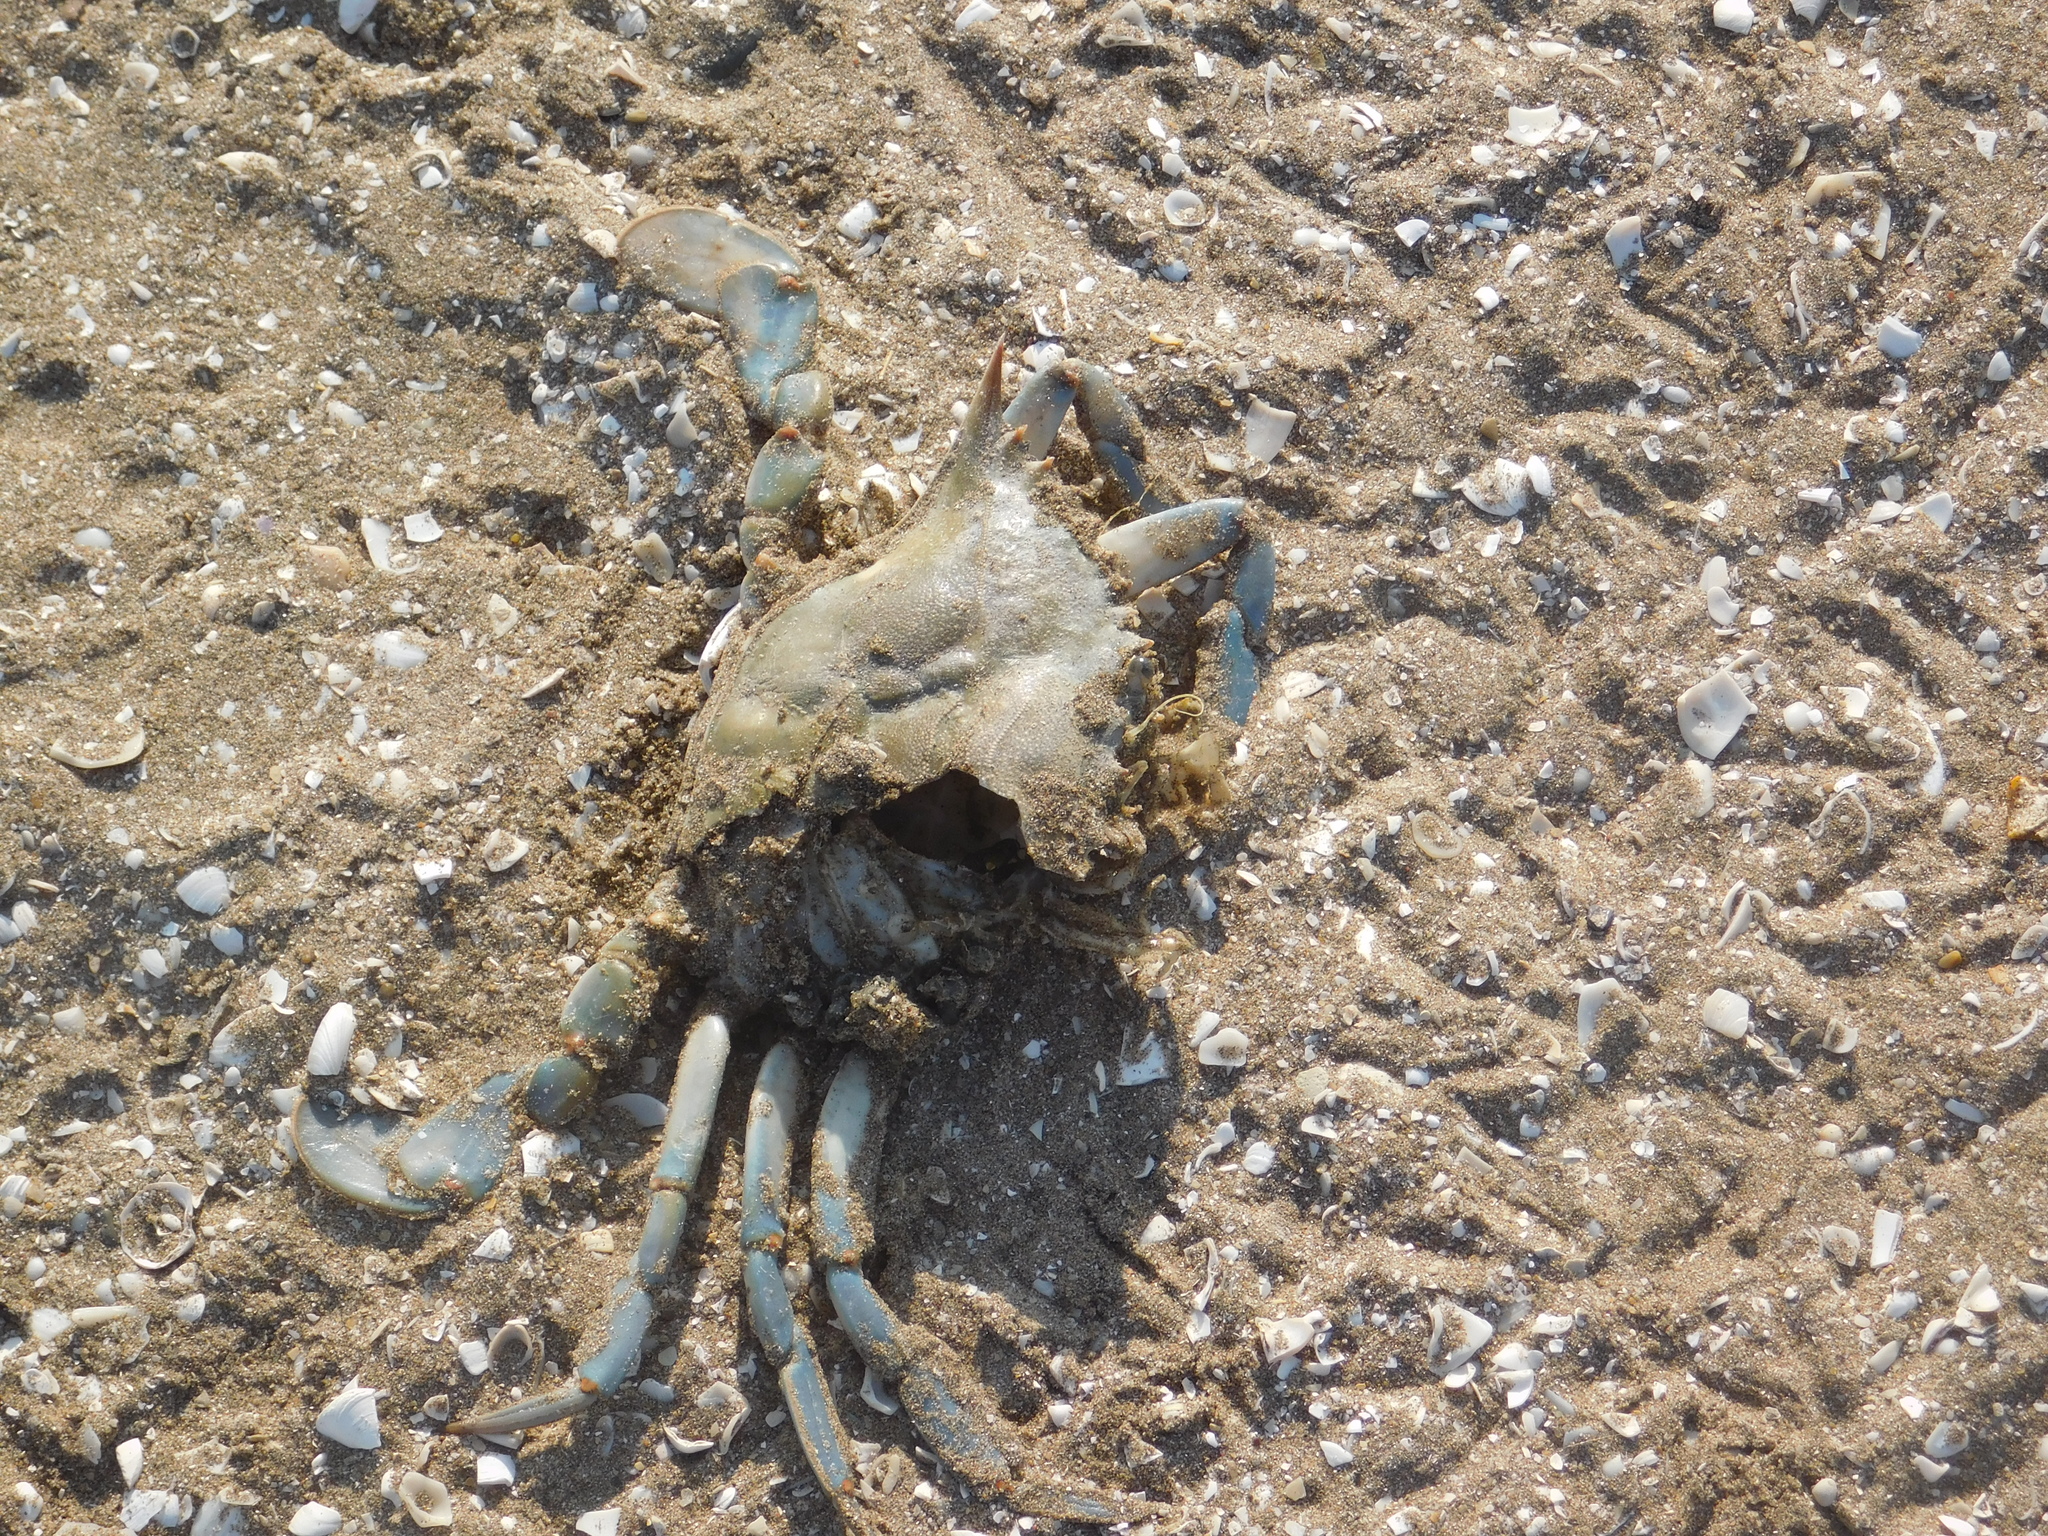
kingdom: Animalia
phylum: Arthropoda
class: Malacostraca
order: Decapoda
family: Portunidae
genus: Callinectes
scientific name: Callinectes sapidus
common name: Blue crab
